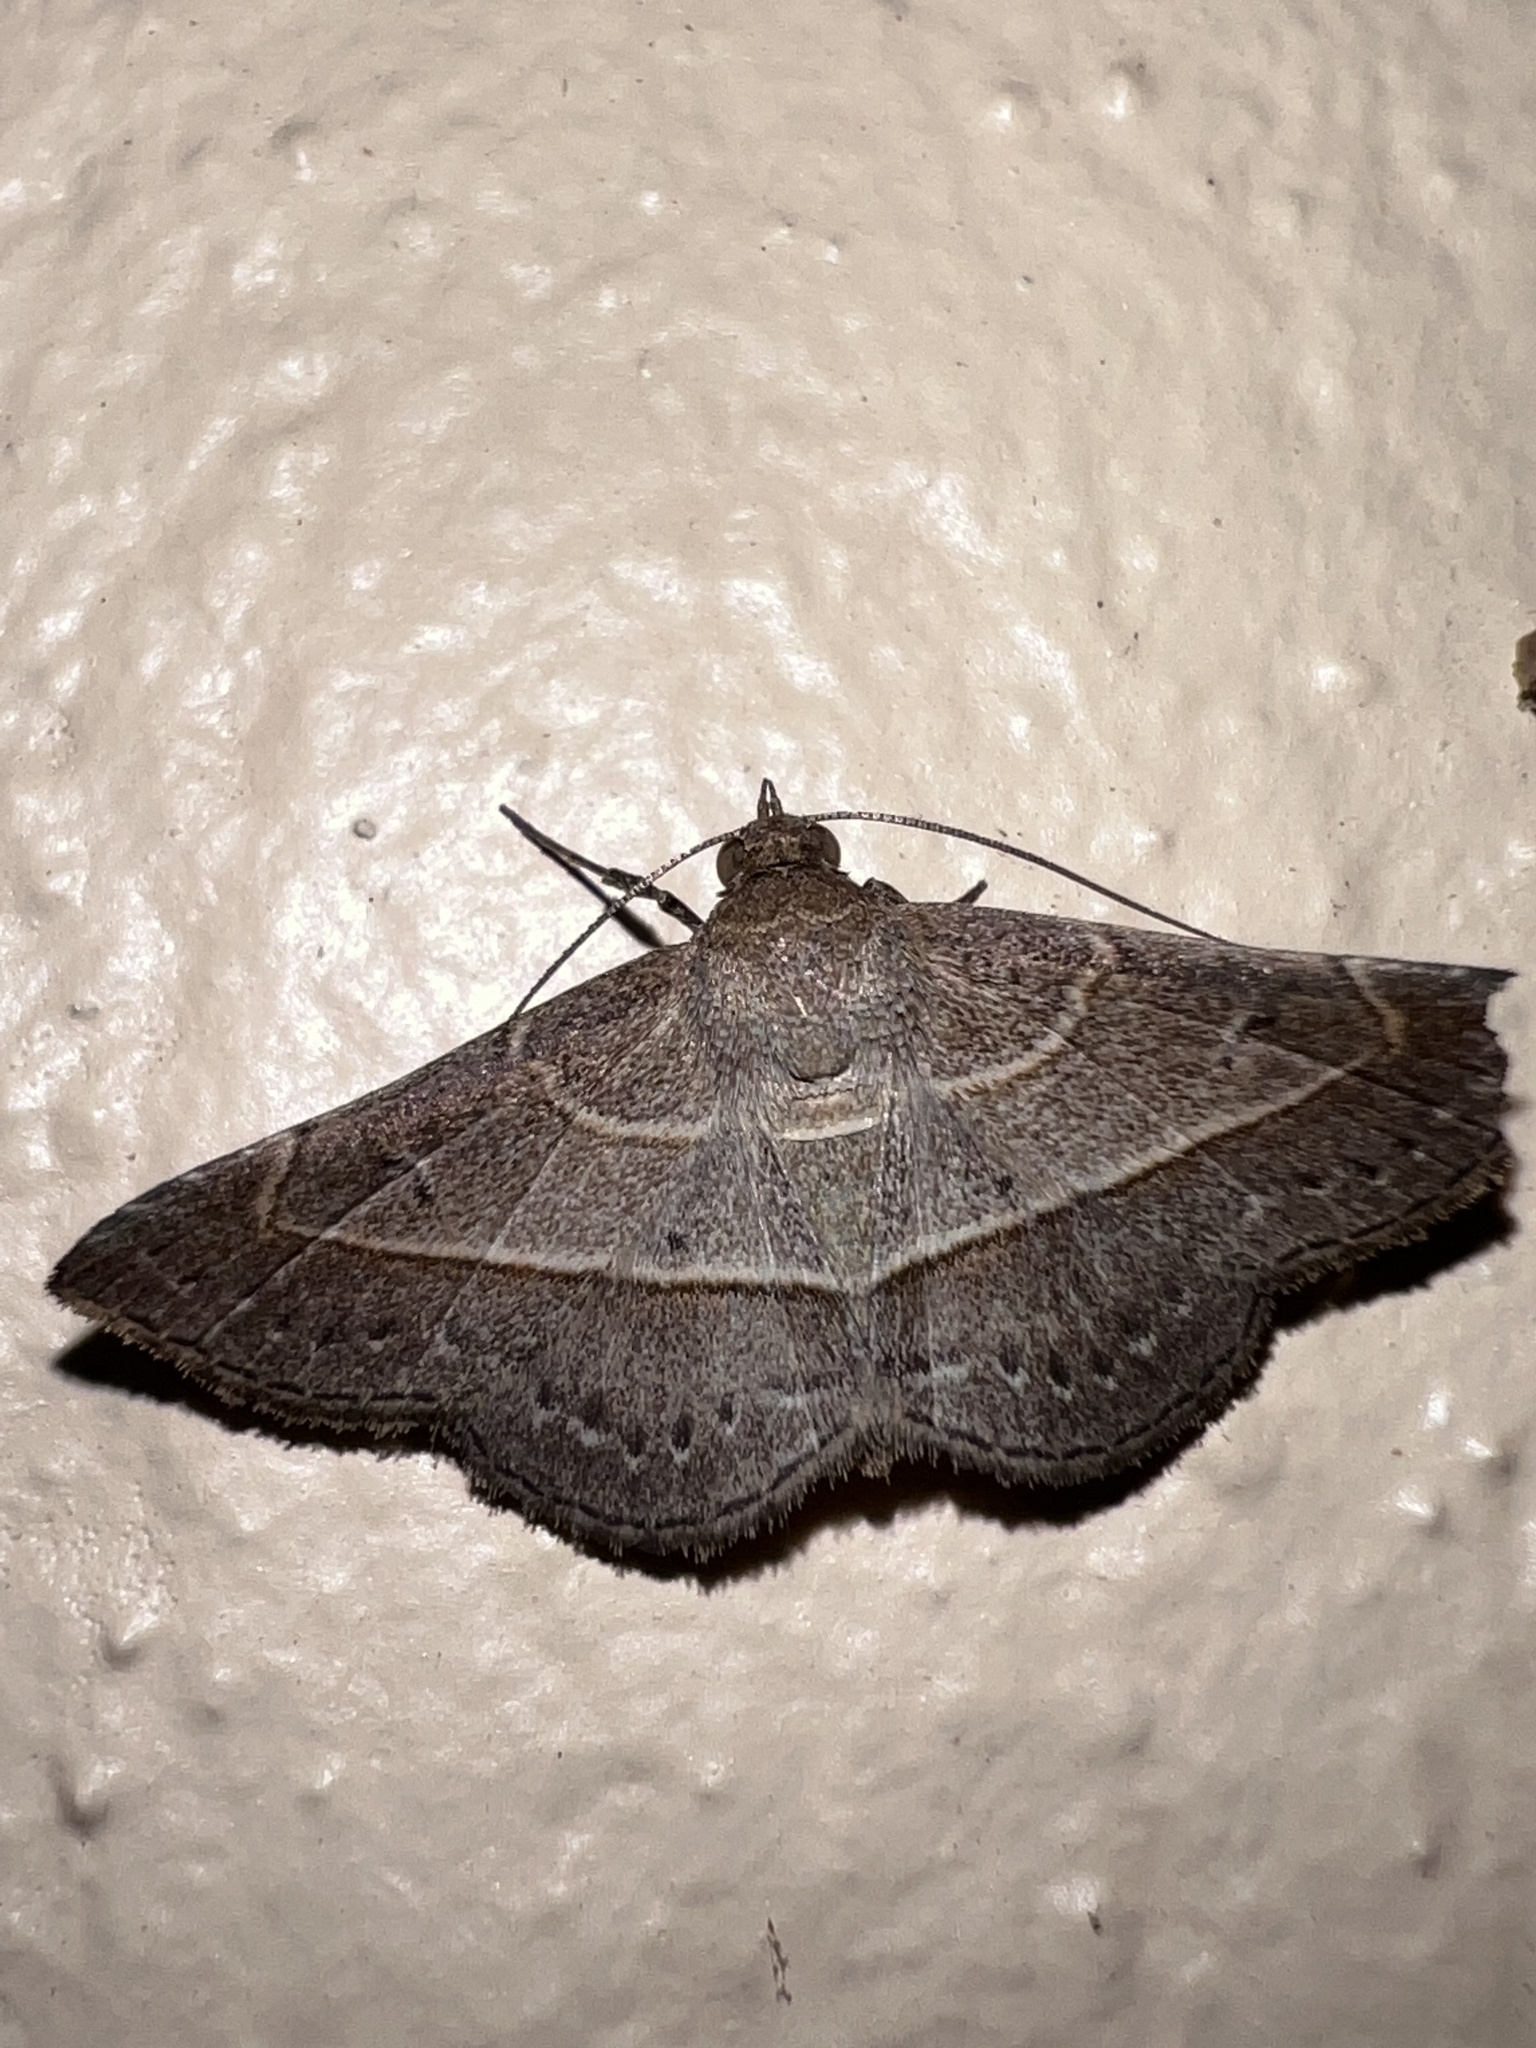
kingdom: Animalia
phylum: Arthropoda
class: Insecta
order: Lepidoptera
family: Erebidae
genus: Coenobela
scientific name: Coenobela paucula
